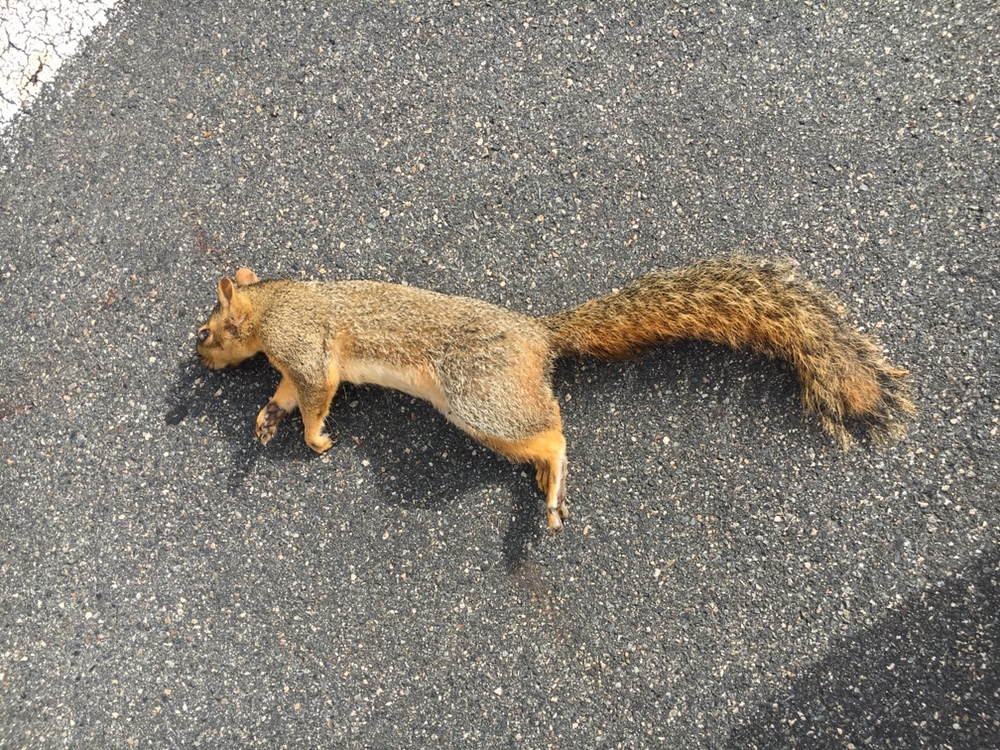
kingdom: Animalia
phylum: Chordata
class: Mammalia
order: Rodentia
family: Sciuridae
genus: Sciurus
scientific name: Sciurus niger
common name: Fox squirrel
